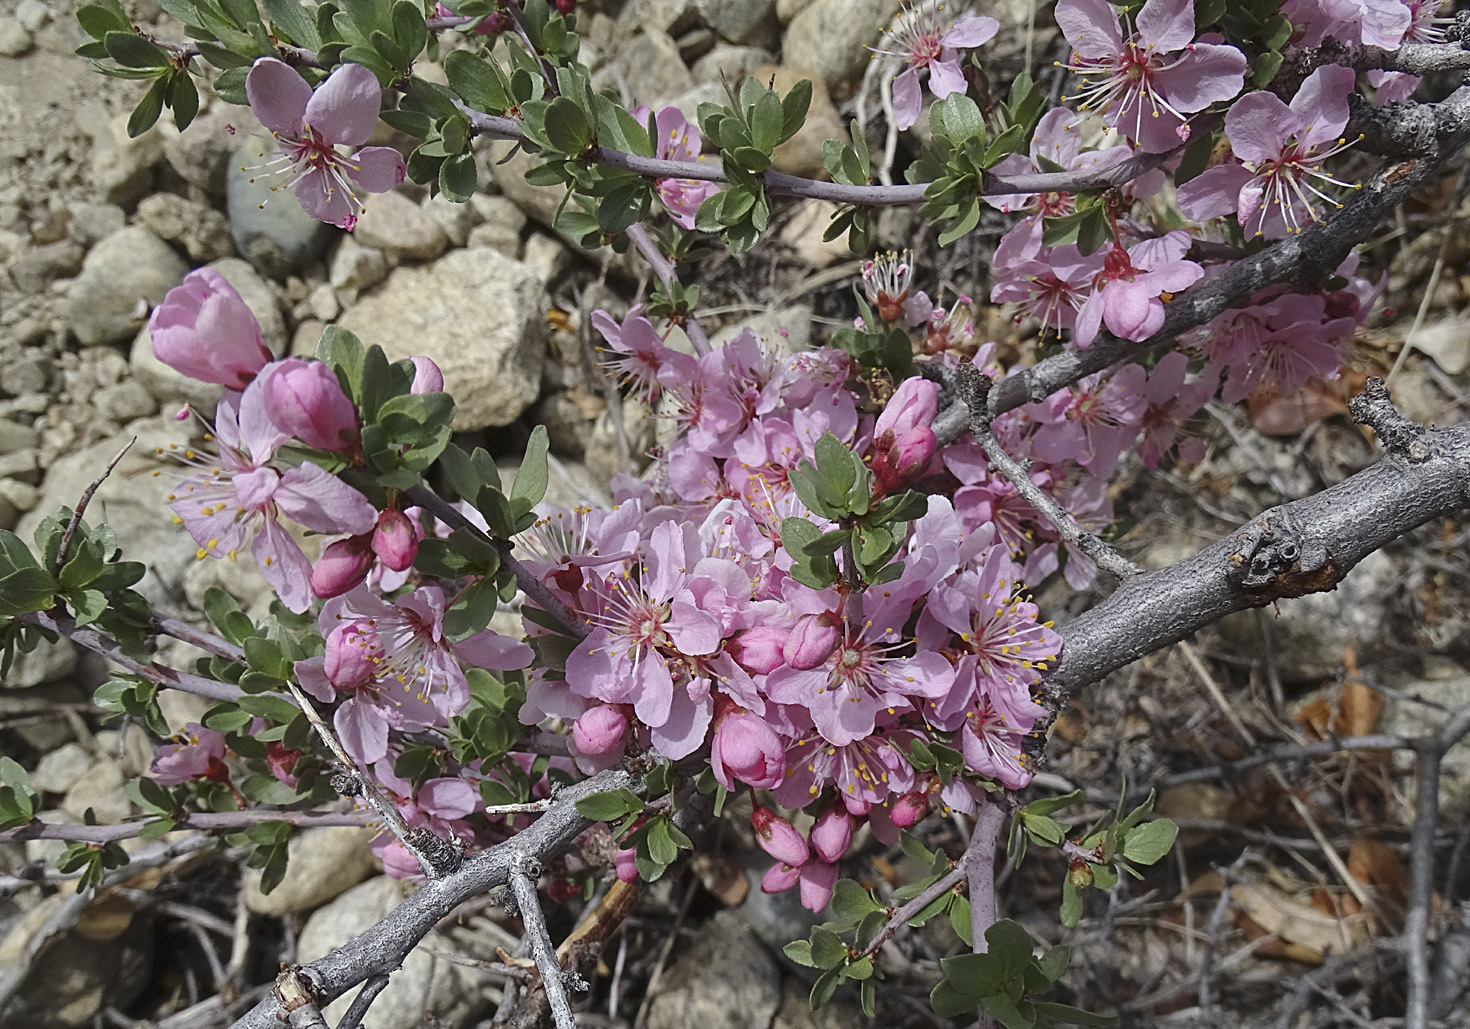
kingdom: Plantae
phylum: Tracheophyta
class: Magnoliopsida
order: Rosales
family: Rosaceae
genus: Prunus
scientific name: Prunus andersonii
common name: Desert peach
